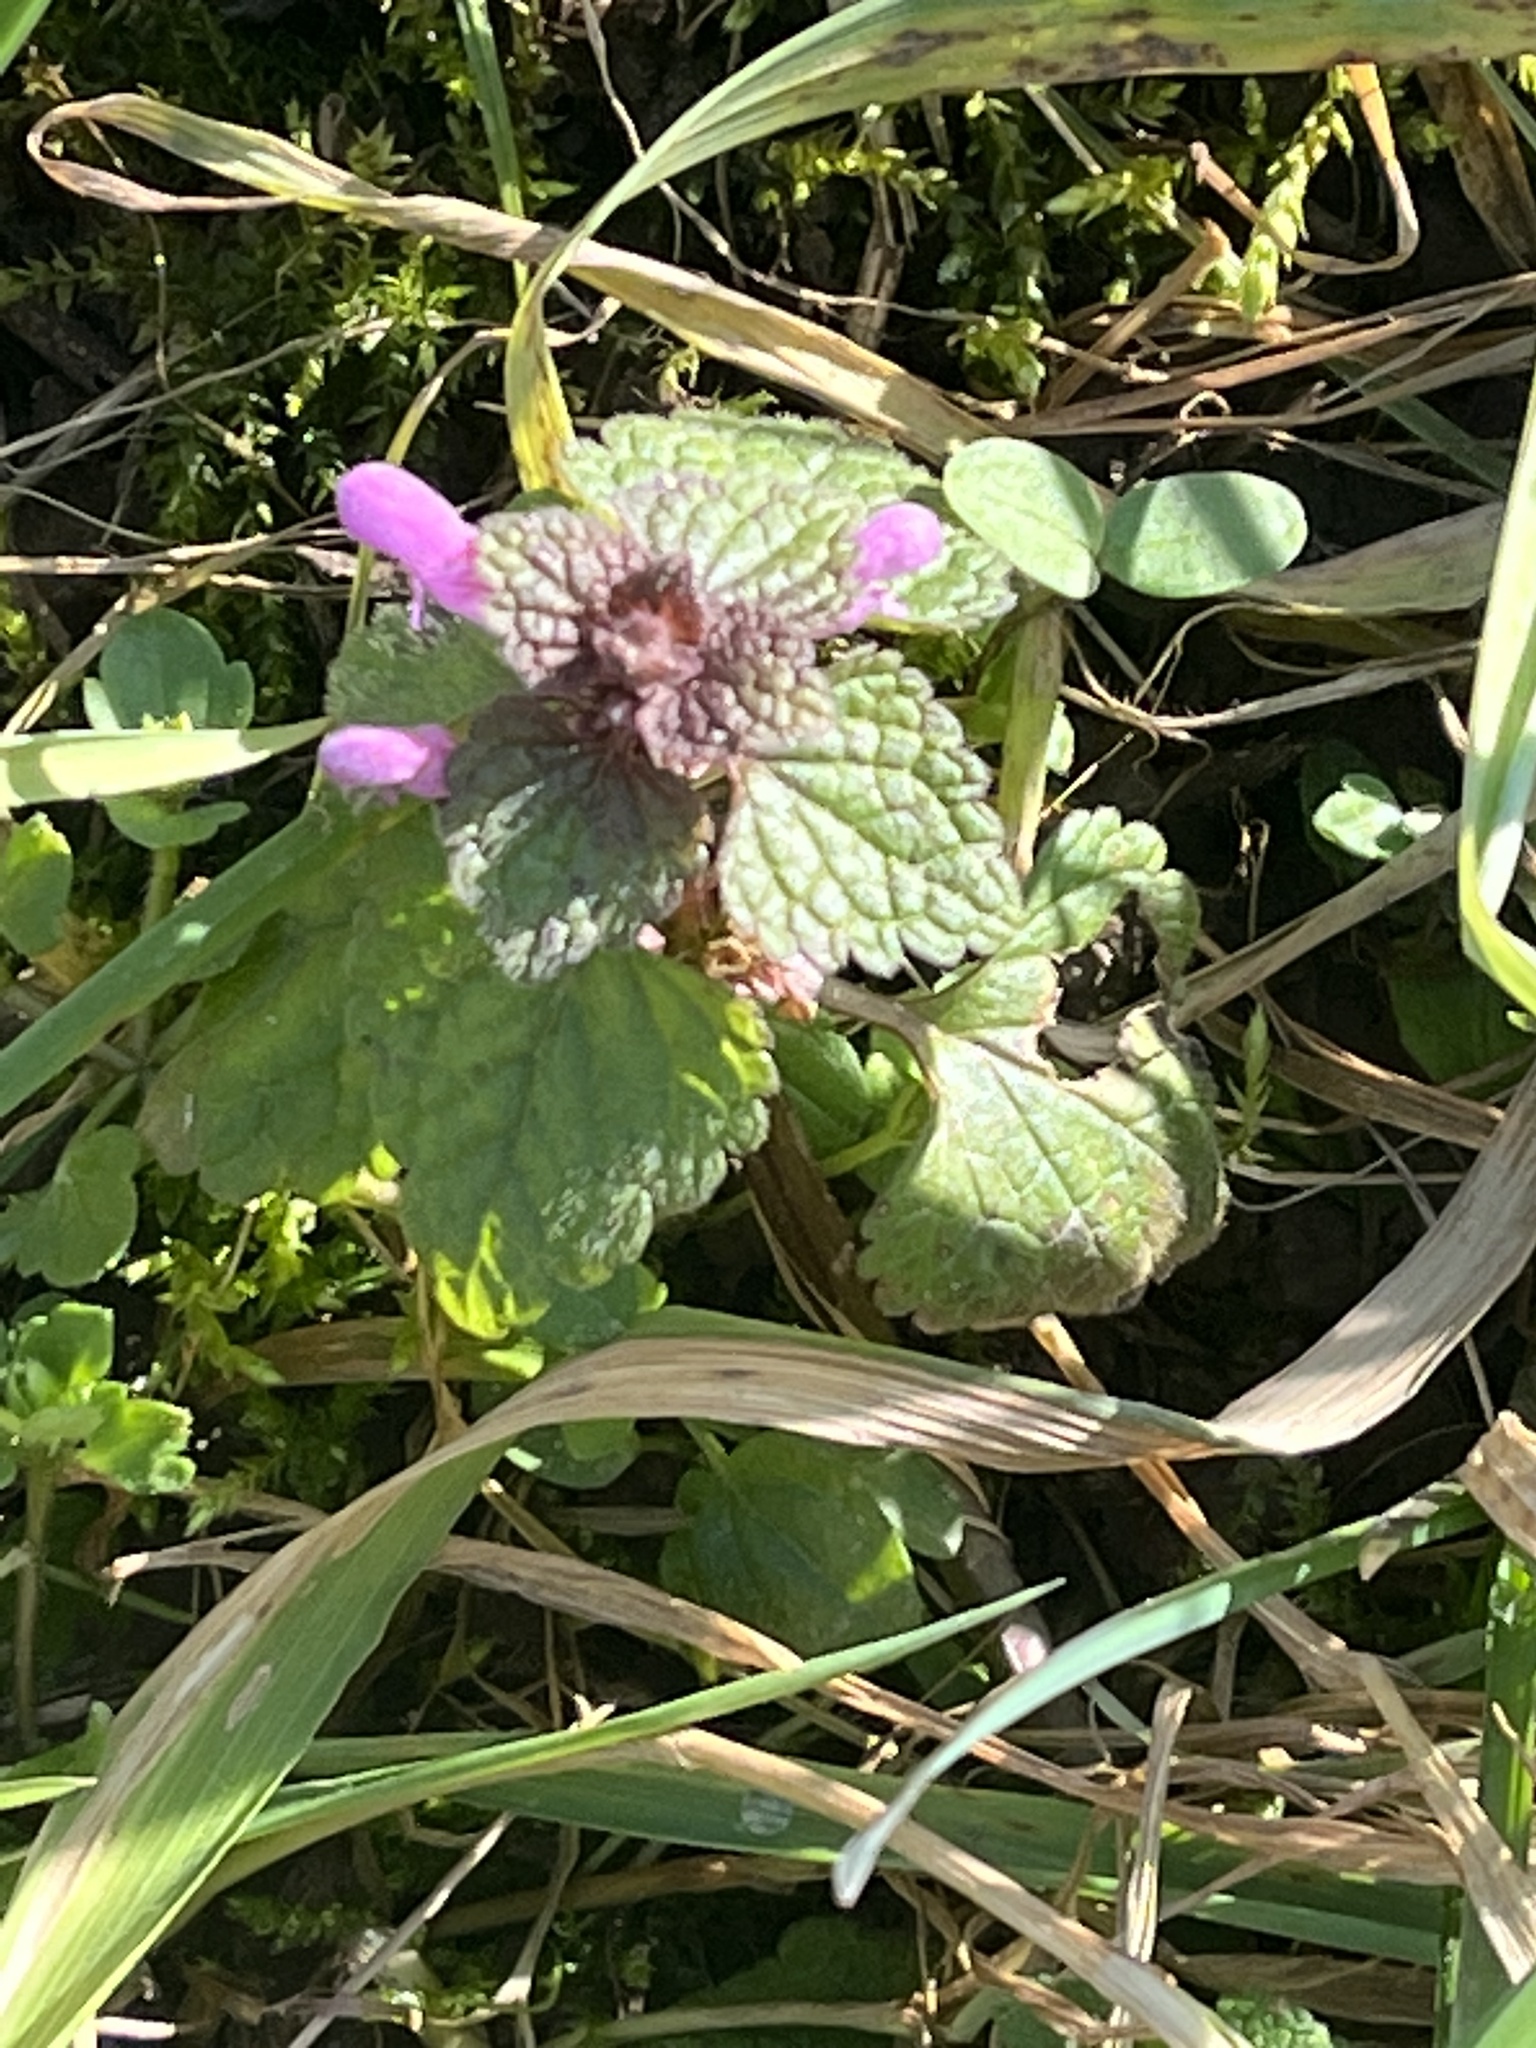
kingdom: Plantae
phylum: Tracheophyta
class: Magnoliopsida
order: Lamiales
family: Lamiaceae
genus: Lamium
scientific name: Lamium purpureum
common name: Red dead-nettle
